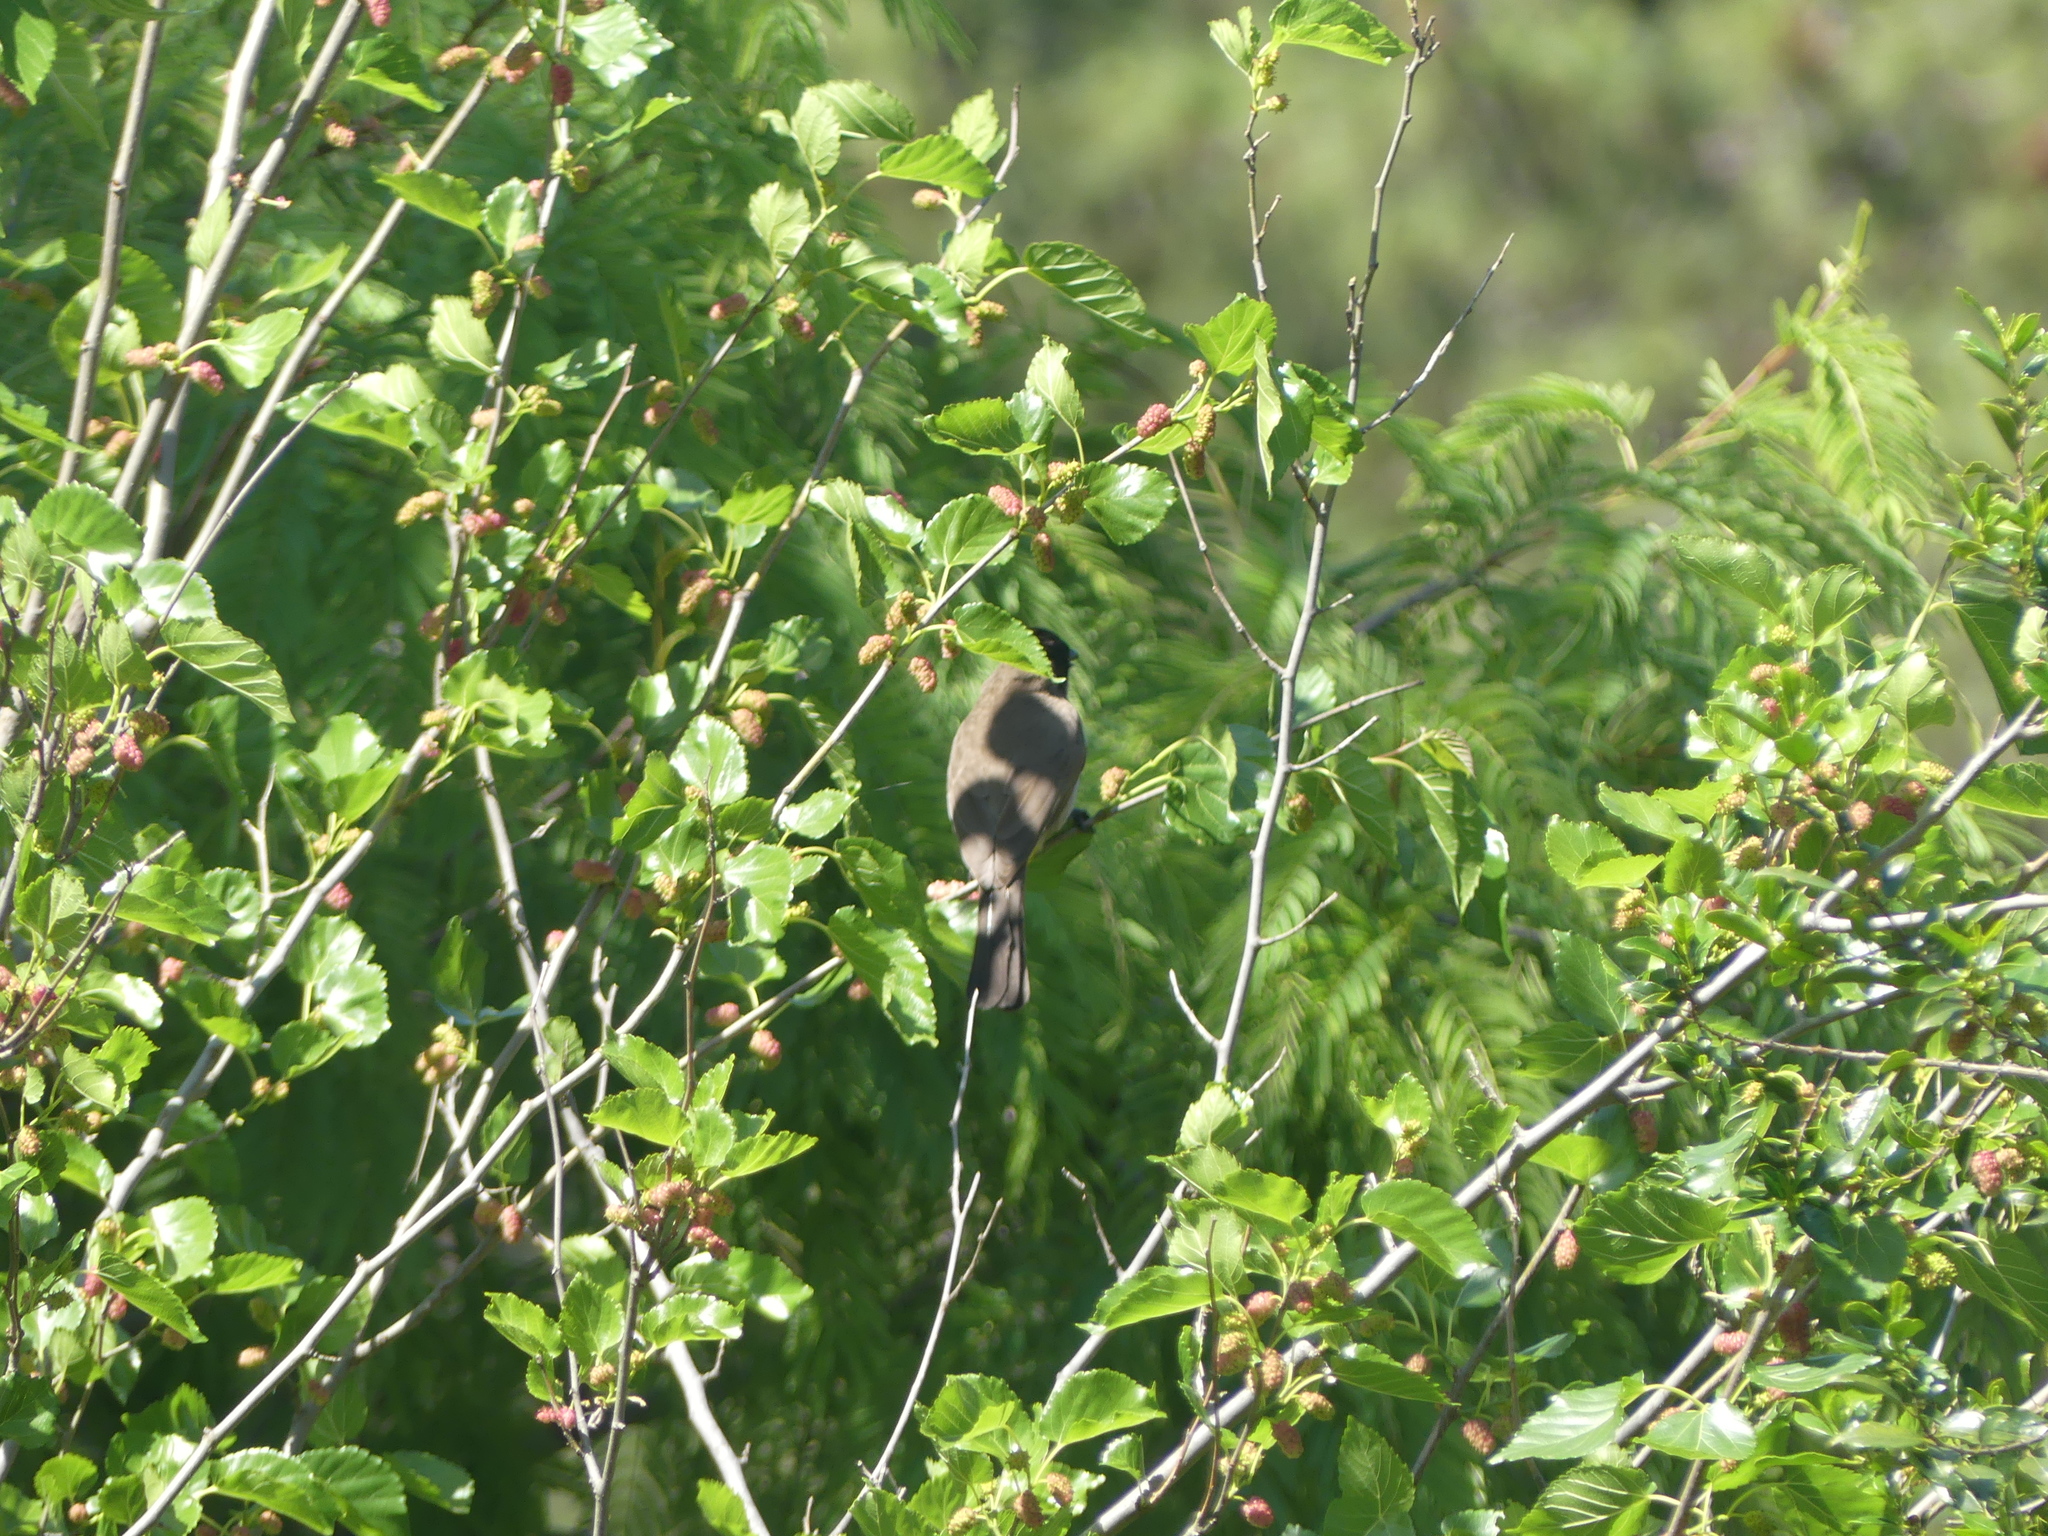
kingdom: Animalia
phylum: Chordata
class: Aves
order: Passeriformes
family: Pycnonotidae
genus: Pycnonotus
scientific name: Pycnonotus barbatus
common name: Common bulbul
